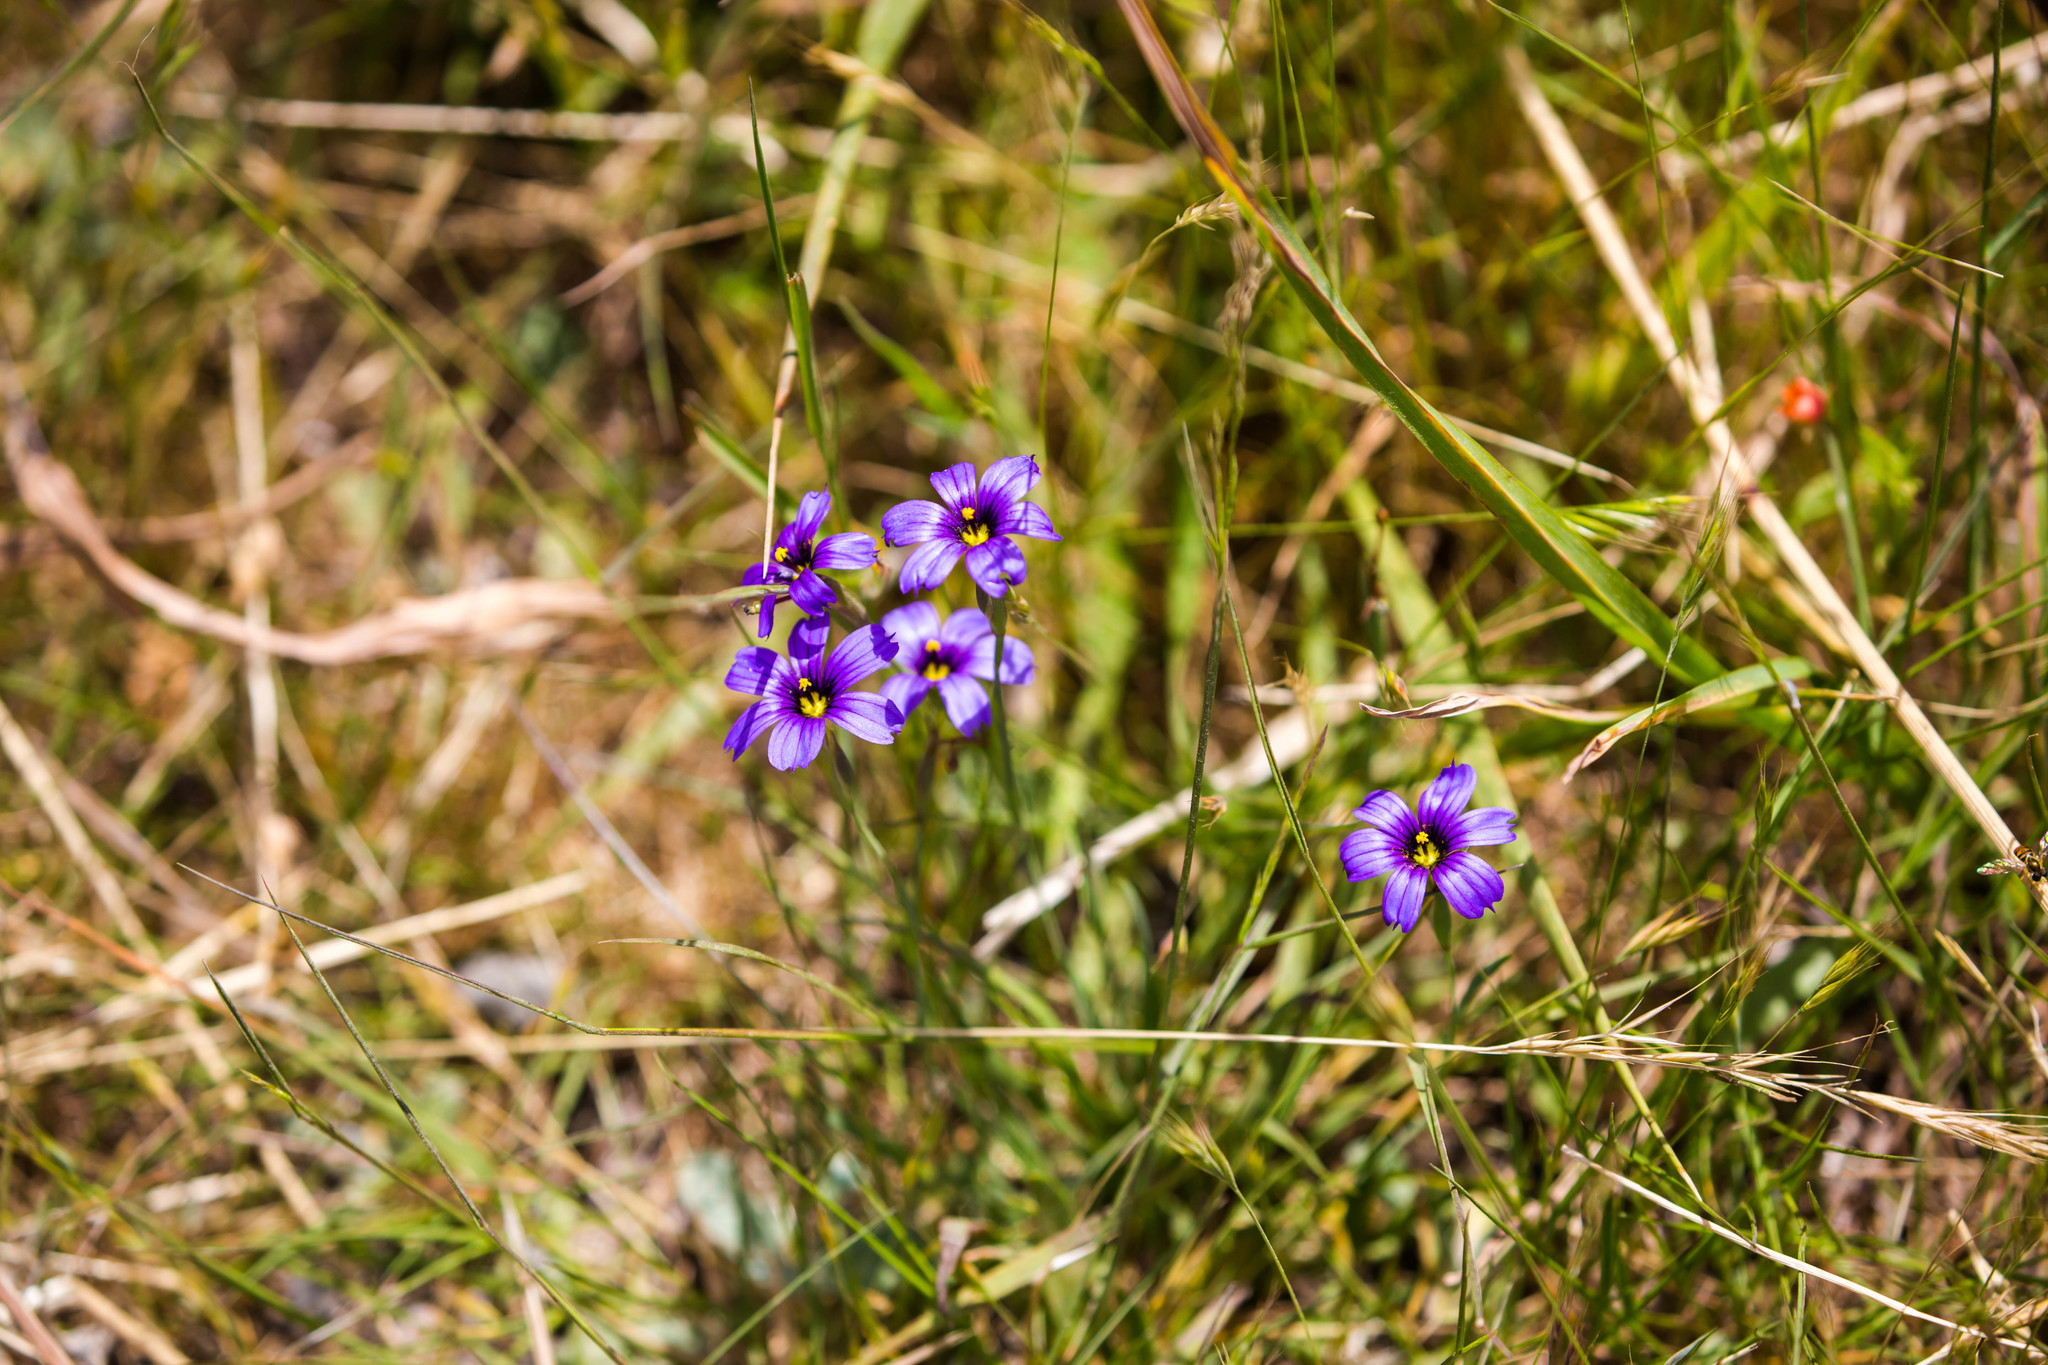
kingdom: Plantae
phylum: Tracheophyta
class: Liliopsida
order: Asparagales
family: Iridaceae
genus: Sisyrinchium
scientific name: Sisyrinchium bellum
